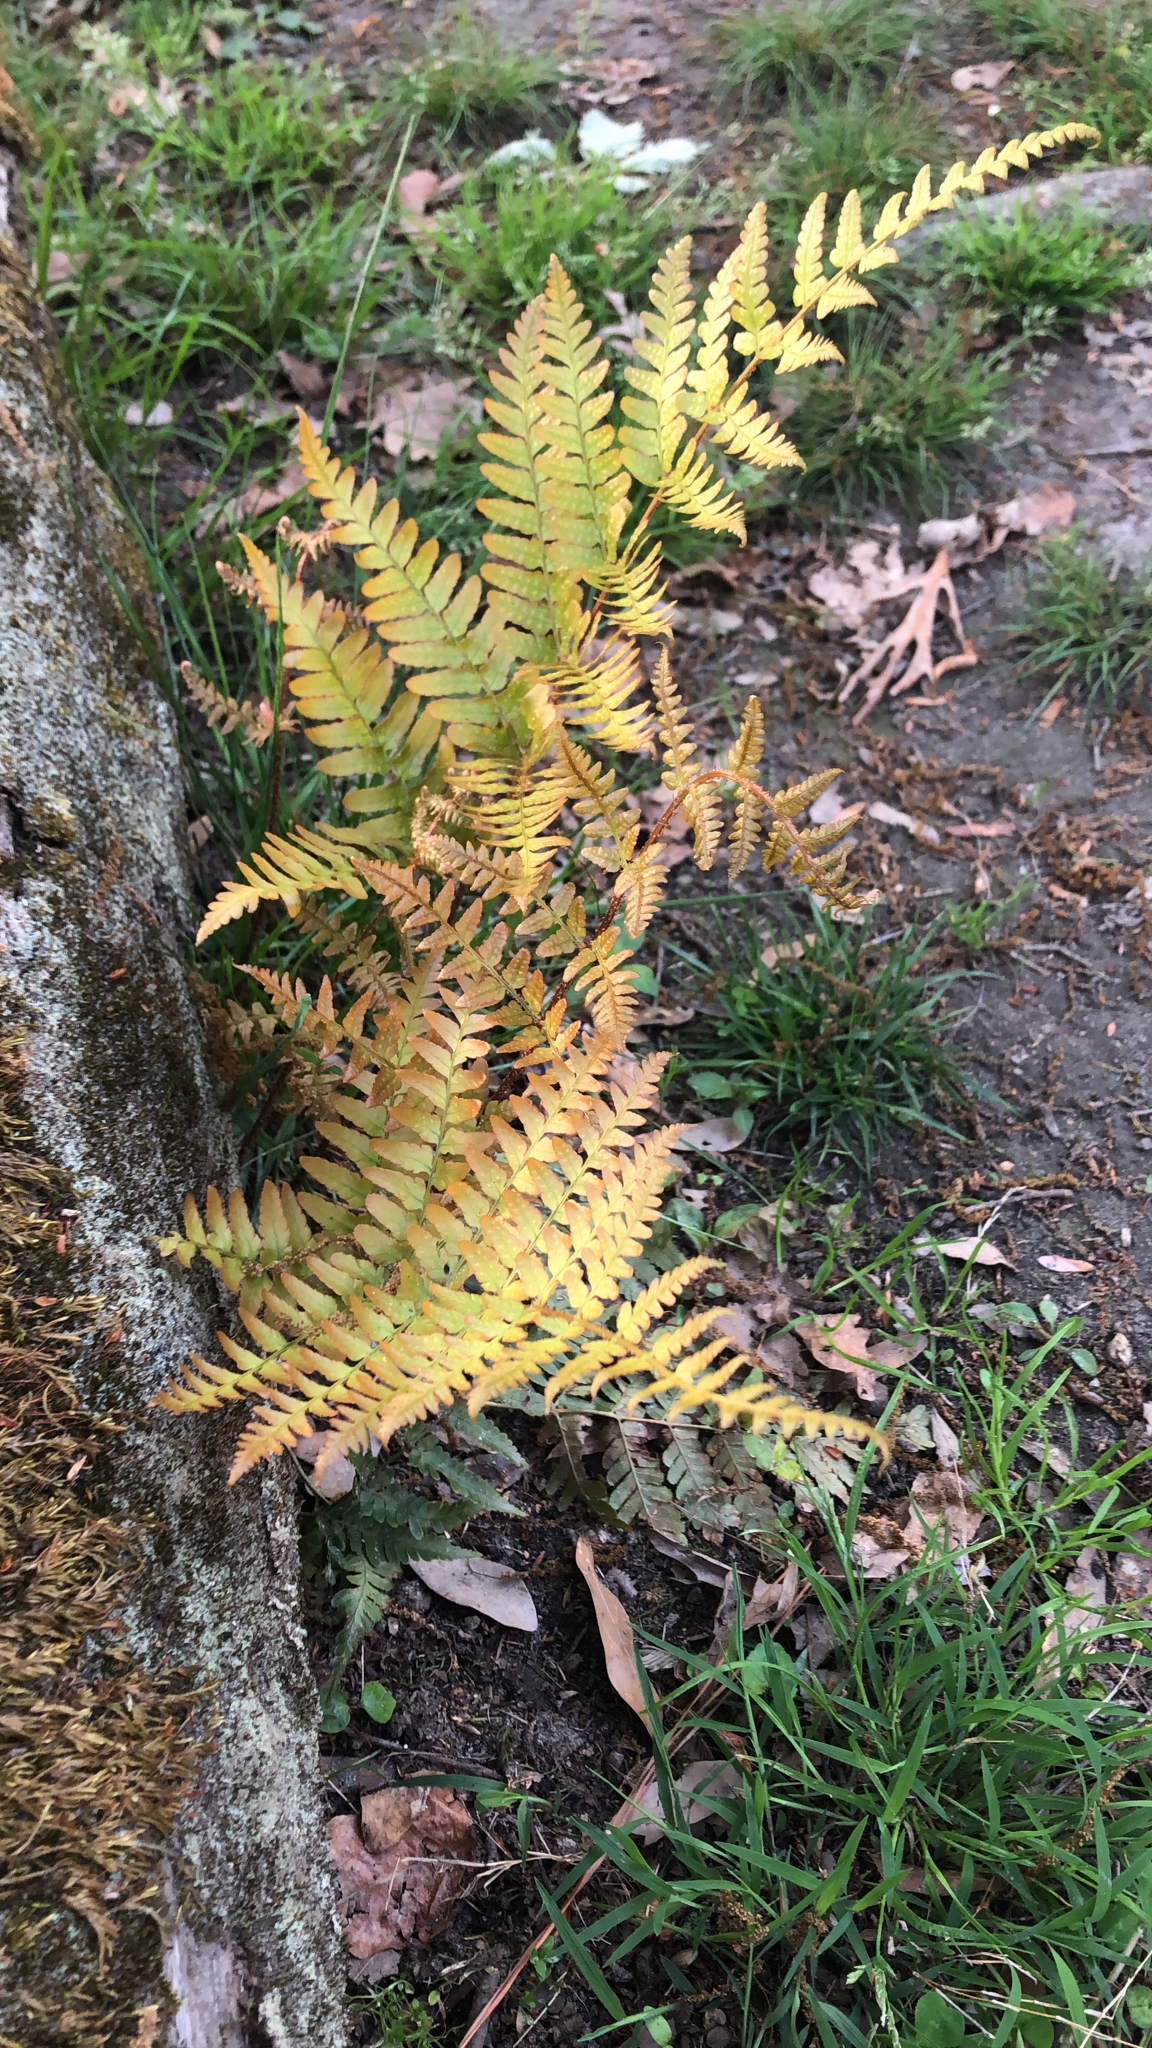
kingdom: Plantae
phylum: Tracheophyta
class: Polypodiopsida
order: Polypodiales
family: Dryopteridaceae
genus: Dryopteris
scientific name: Dryopteris erythrosora
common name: Autumn fern
